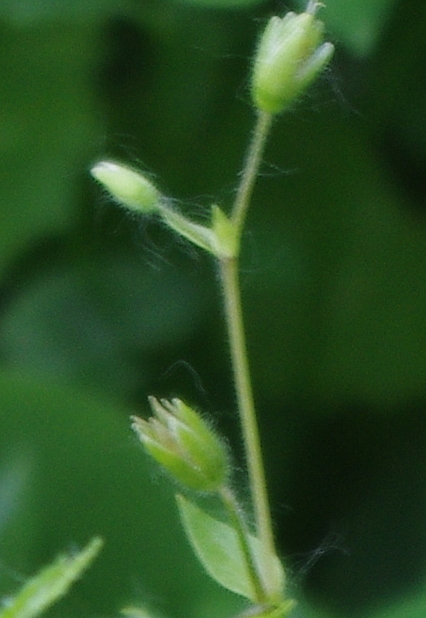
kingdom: Plantae
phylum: Tracheophyta
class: Magnoliopsida
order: Caryophyllales
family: Caryophyllaceae
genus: Stellaria
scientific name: Stellaria media
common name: Common chickweed
